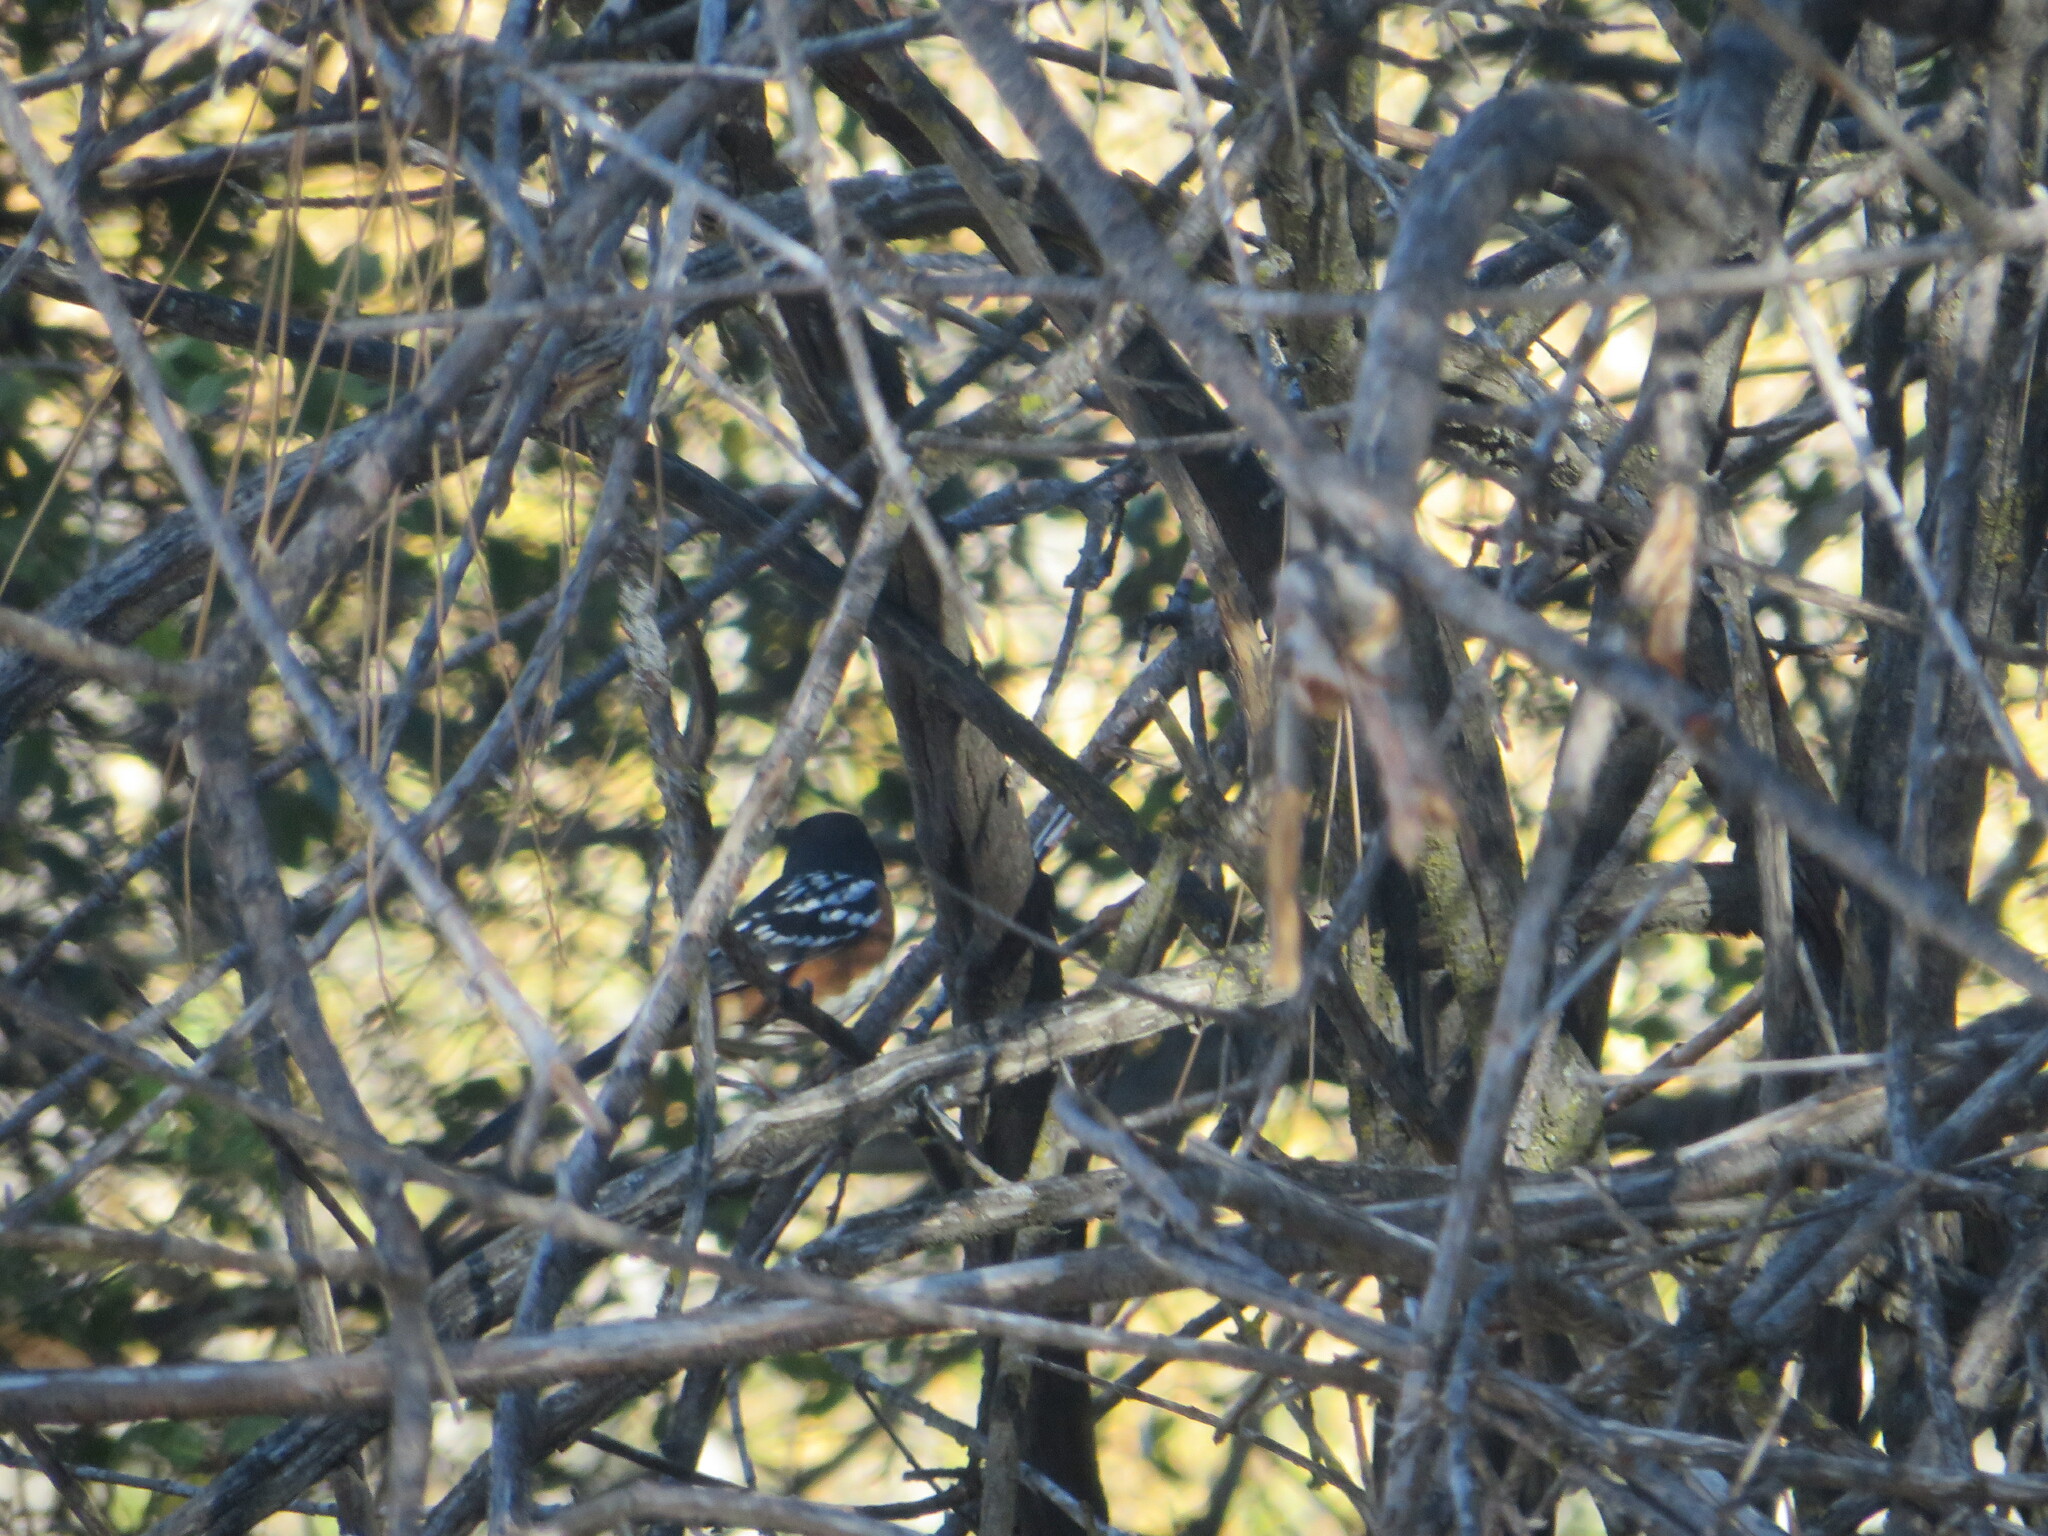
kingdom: Animalia
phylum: Chordata
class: Aves
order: Passeriformes
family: Passerellidae
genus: Pipilo
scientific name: Pipilo maculatus
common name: Spotted towhee
